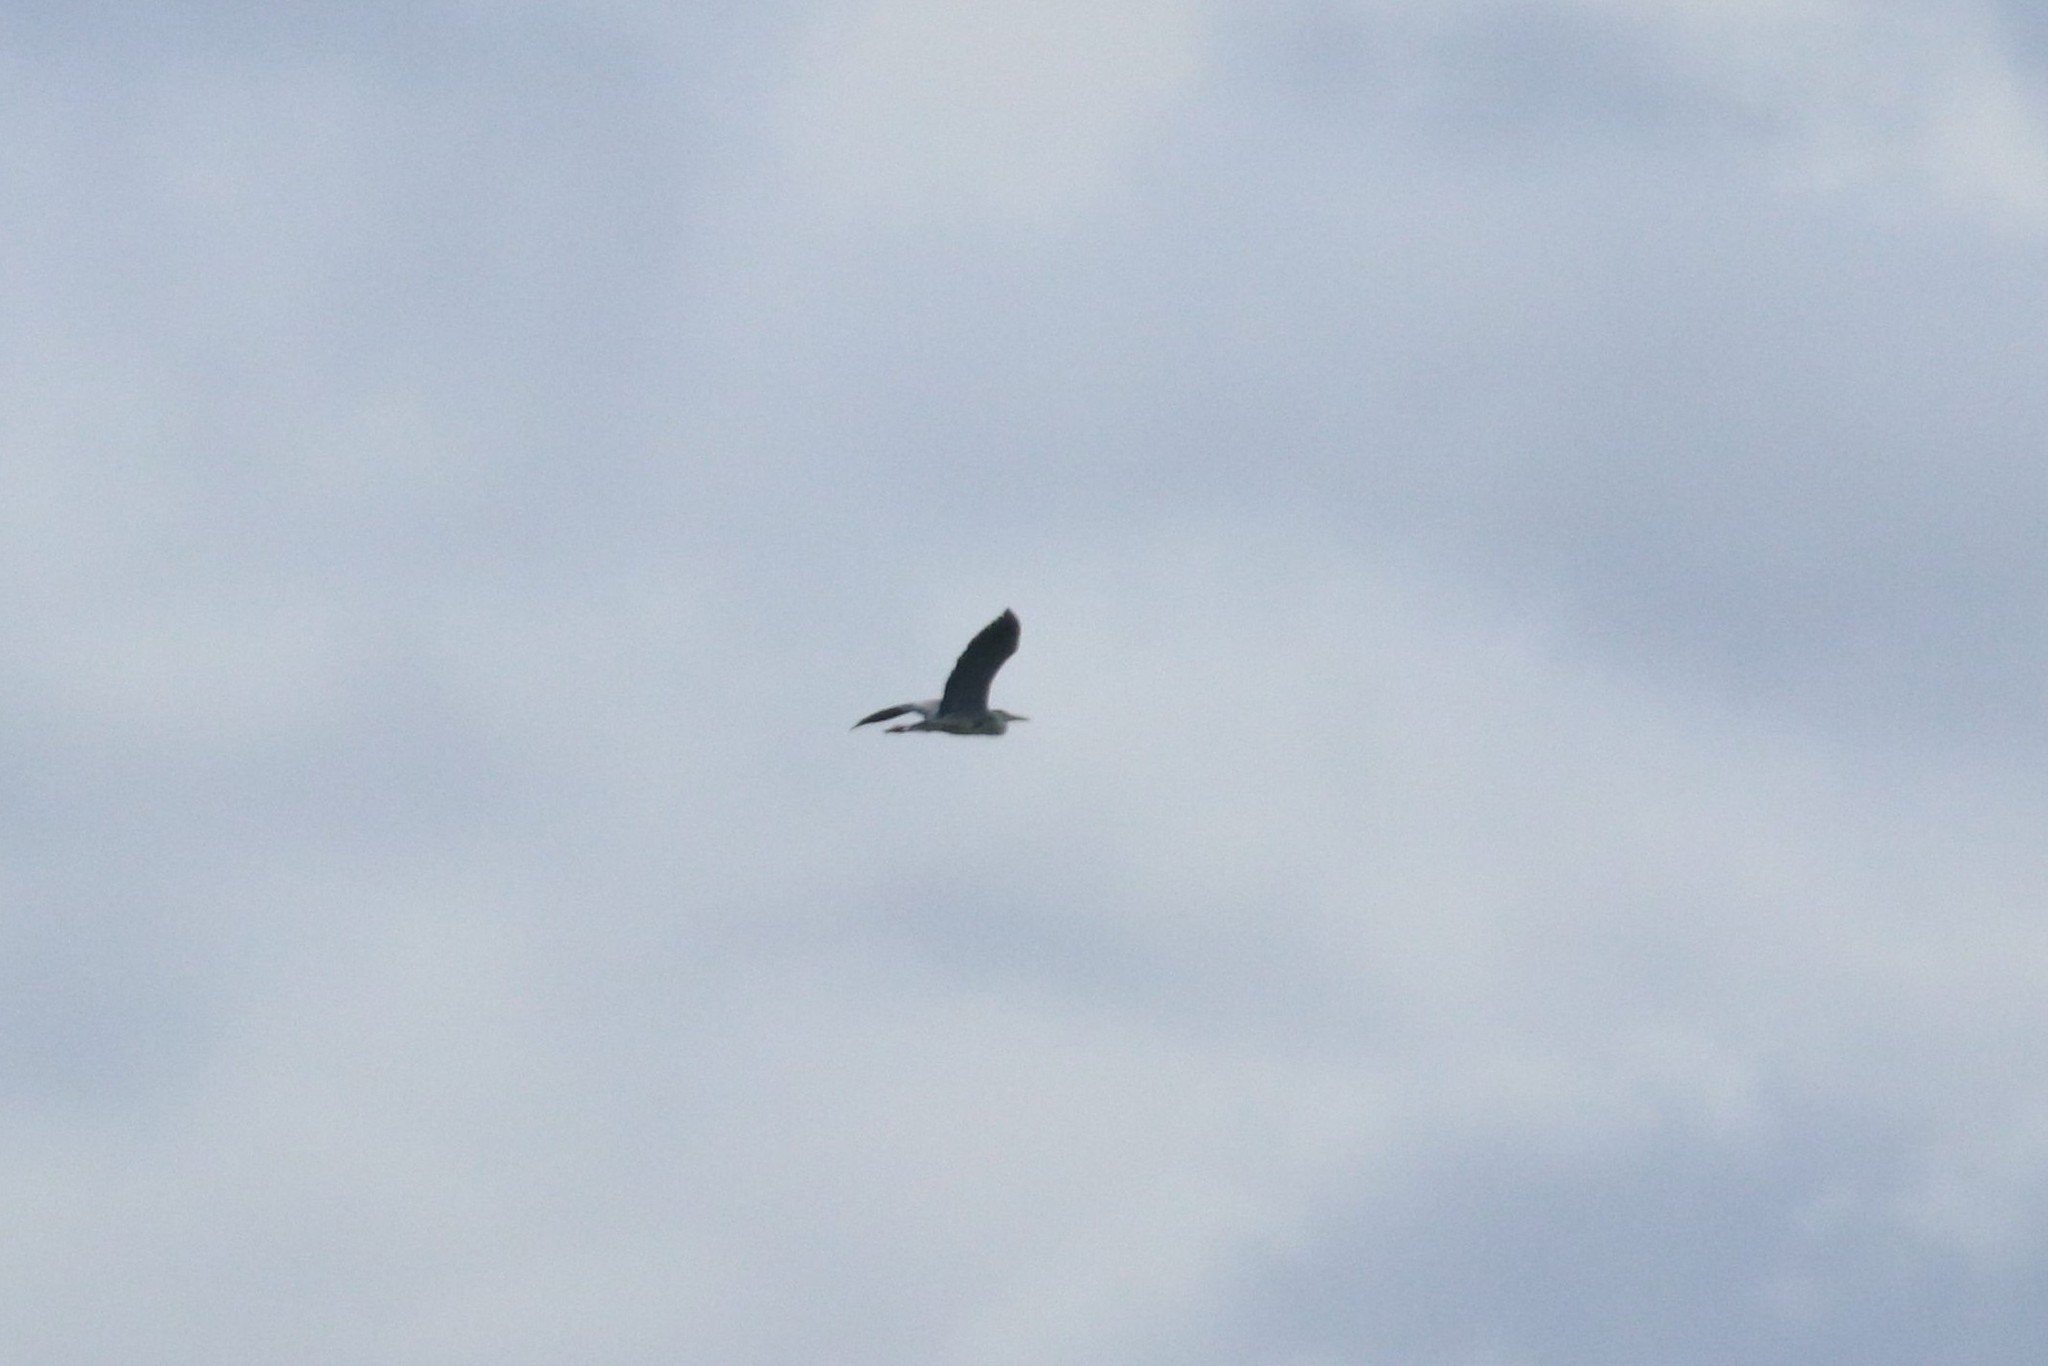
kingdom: Animalia
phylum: Chordata
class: Aves
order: Pelecaniformes
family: Ardeidae
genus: Ardea
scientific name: Ardea cinerea
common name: Grey heron
